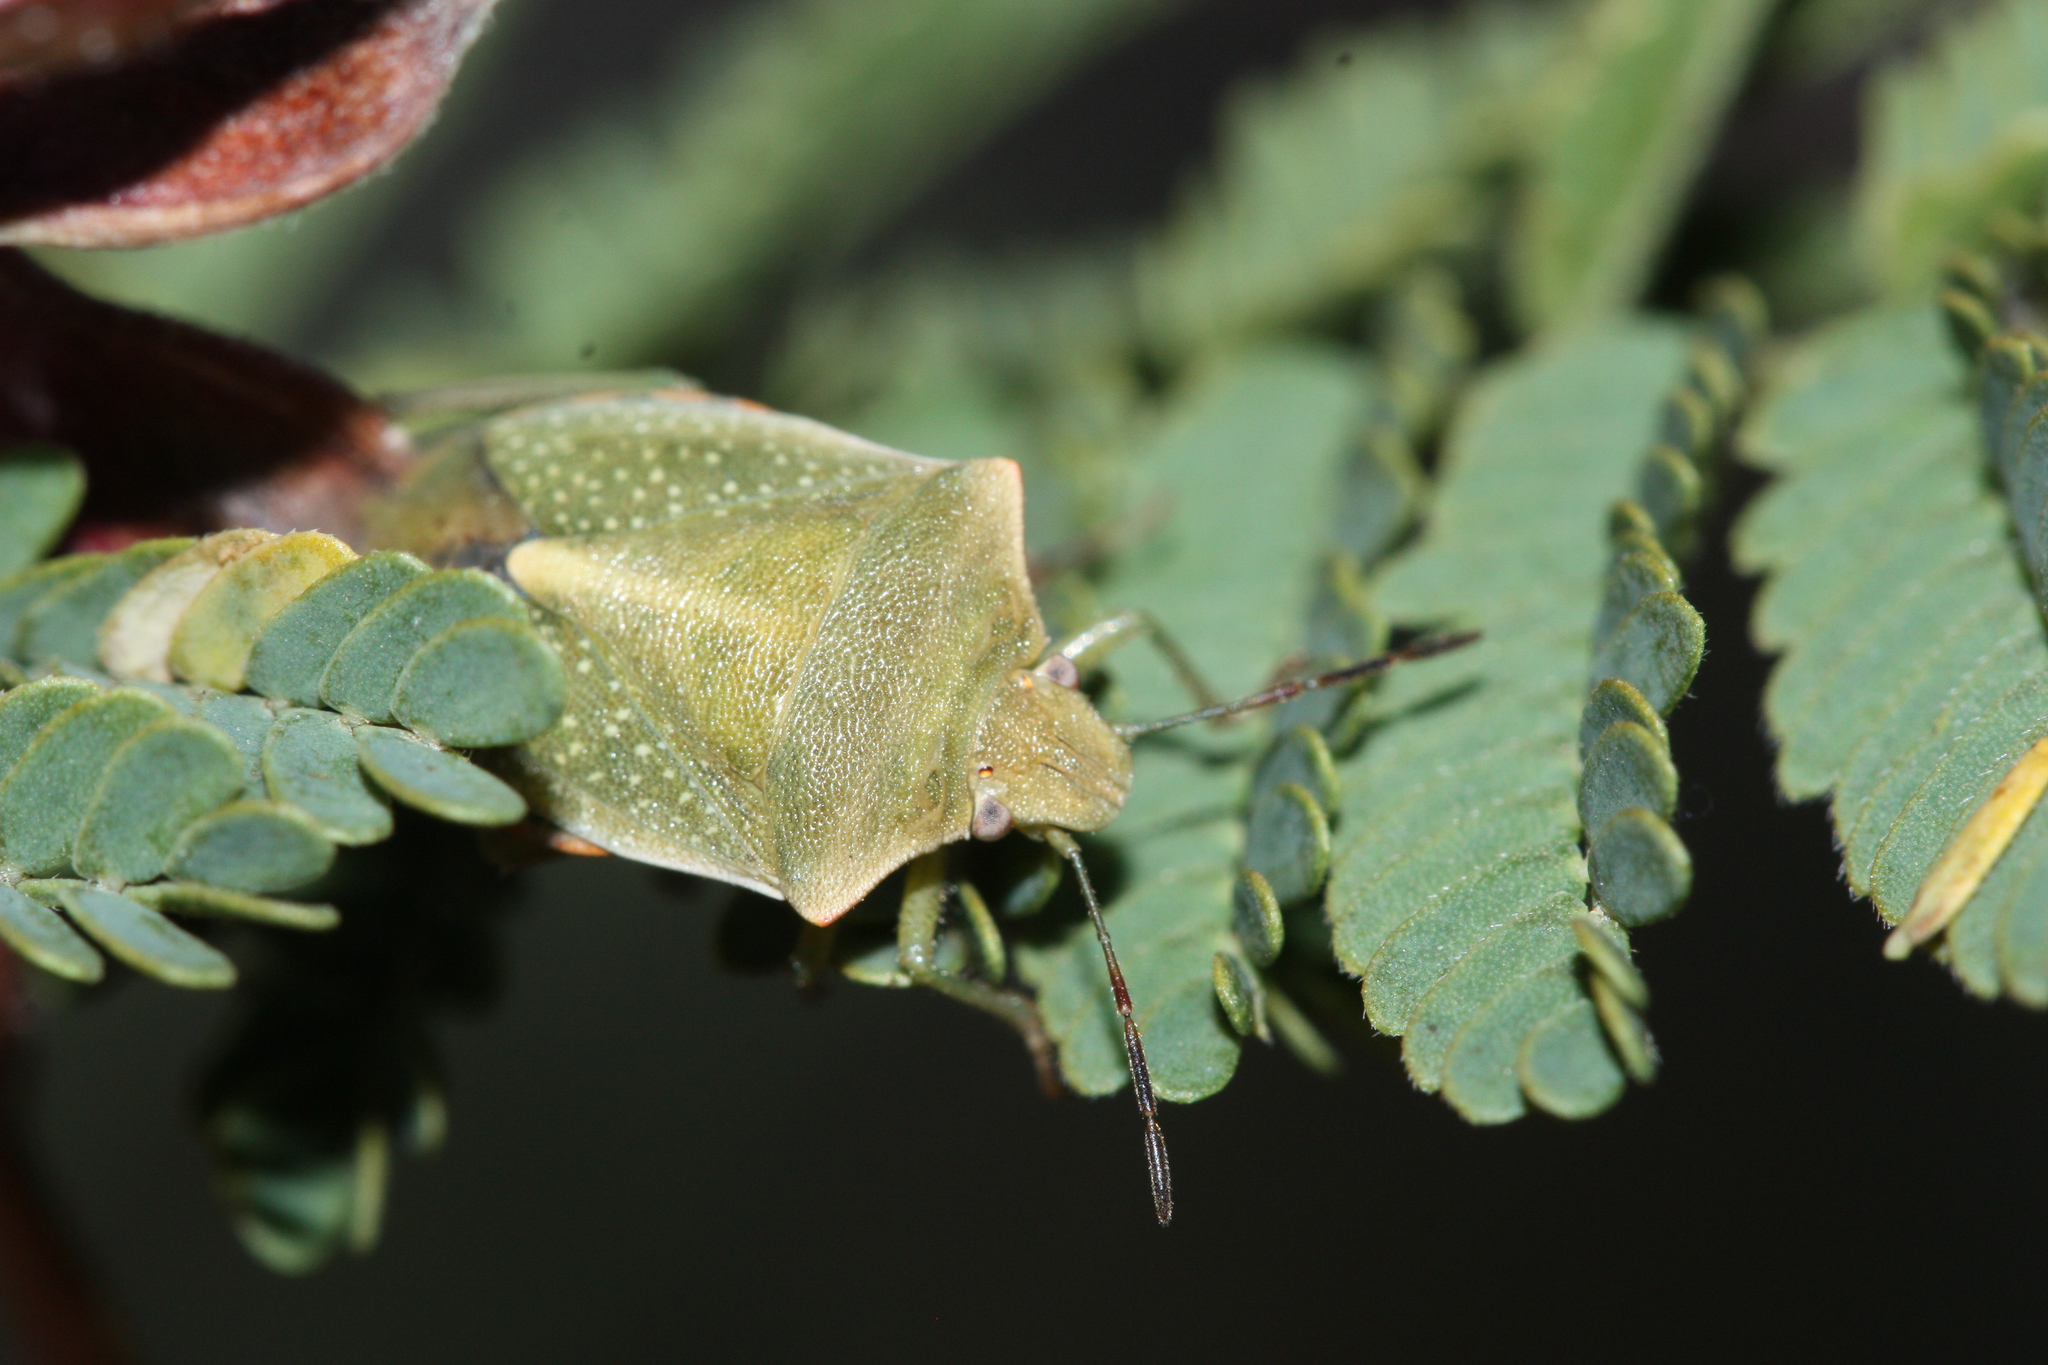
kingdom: Animalia
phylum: Arthropoda
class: Insecta
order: Hemiptera
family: Pentatomidae
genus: Thyanta
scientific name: Thyanta accerra
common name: Stink bug
